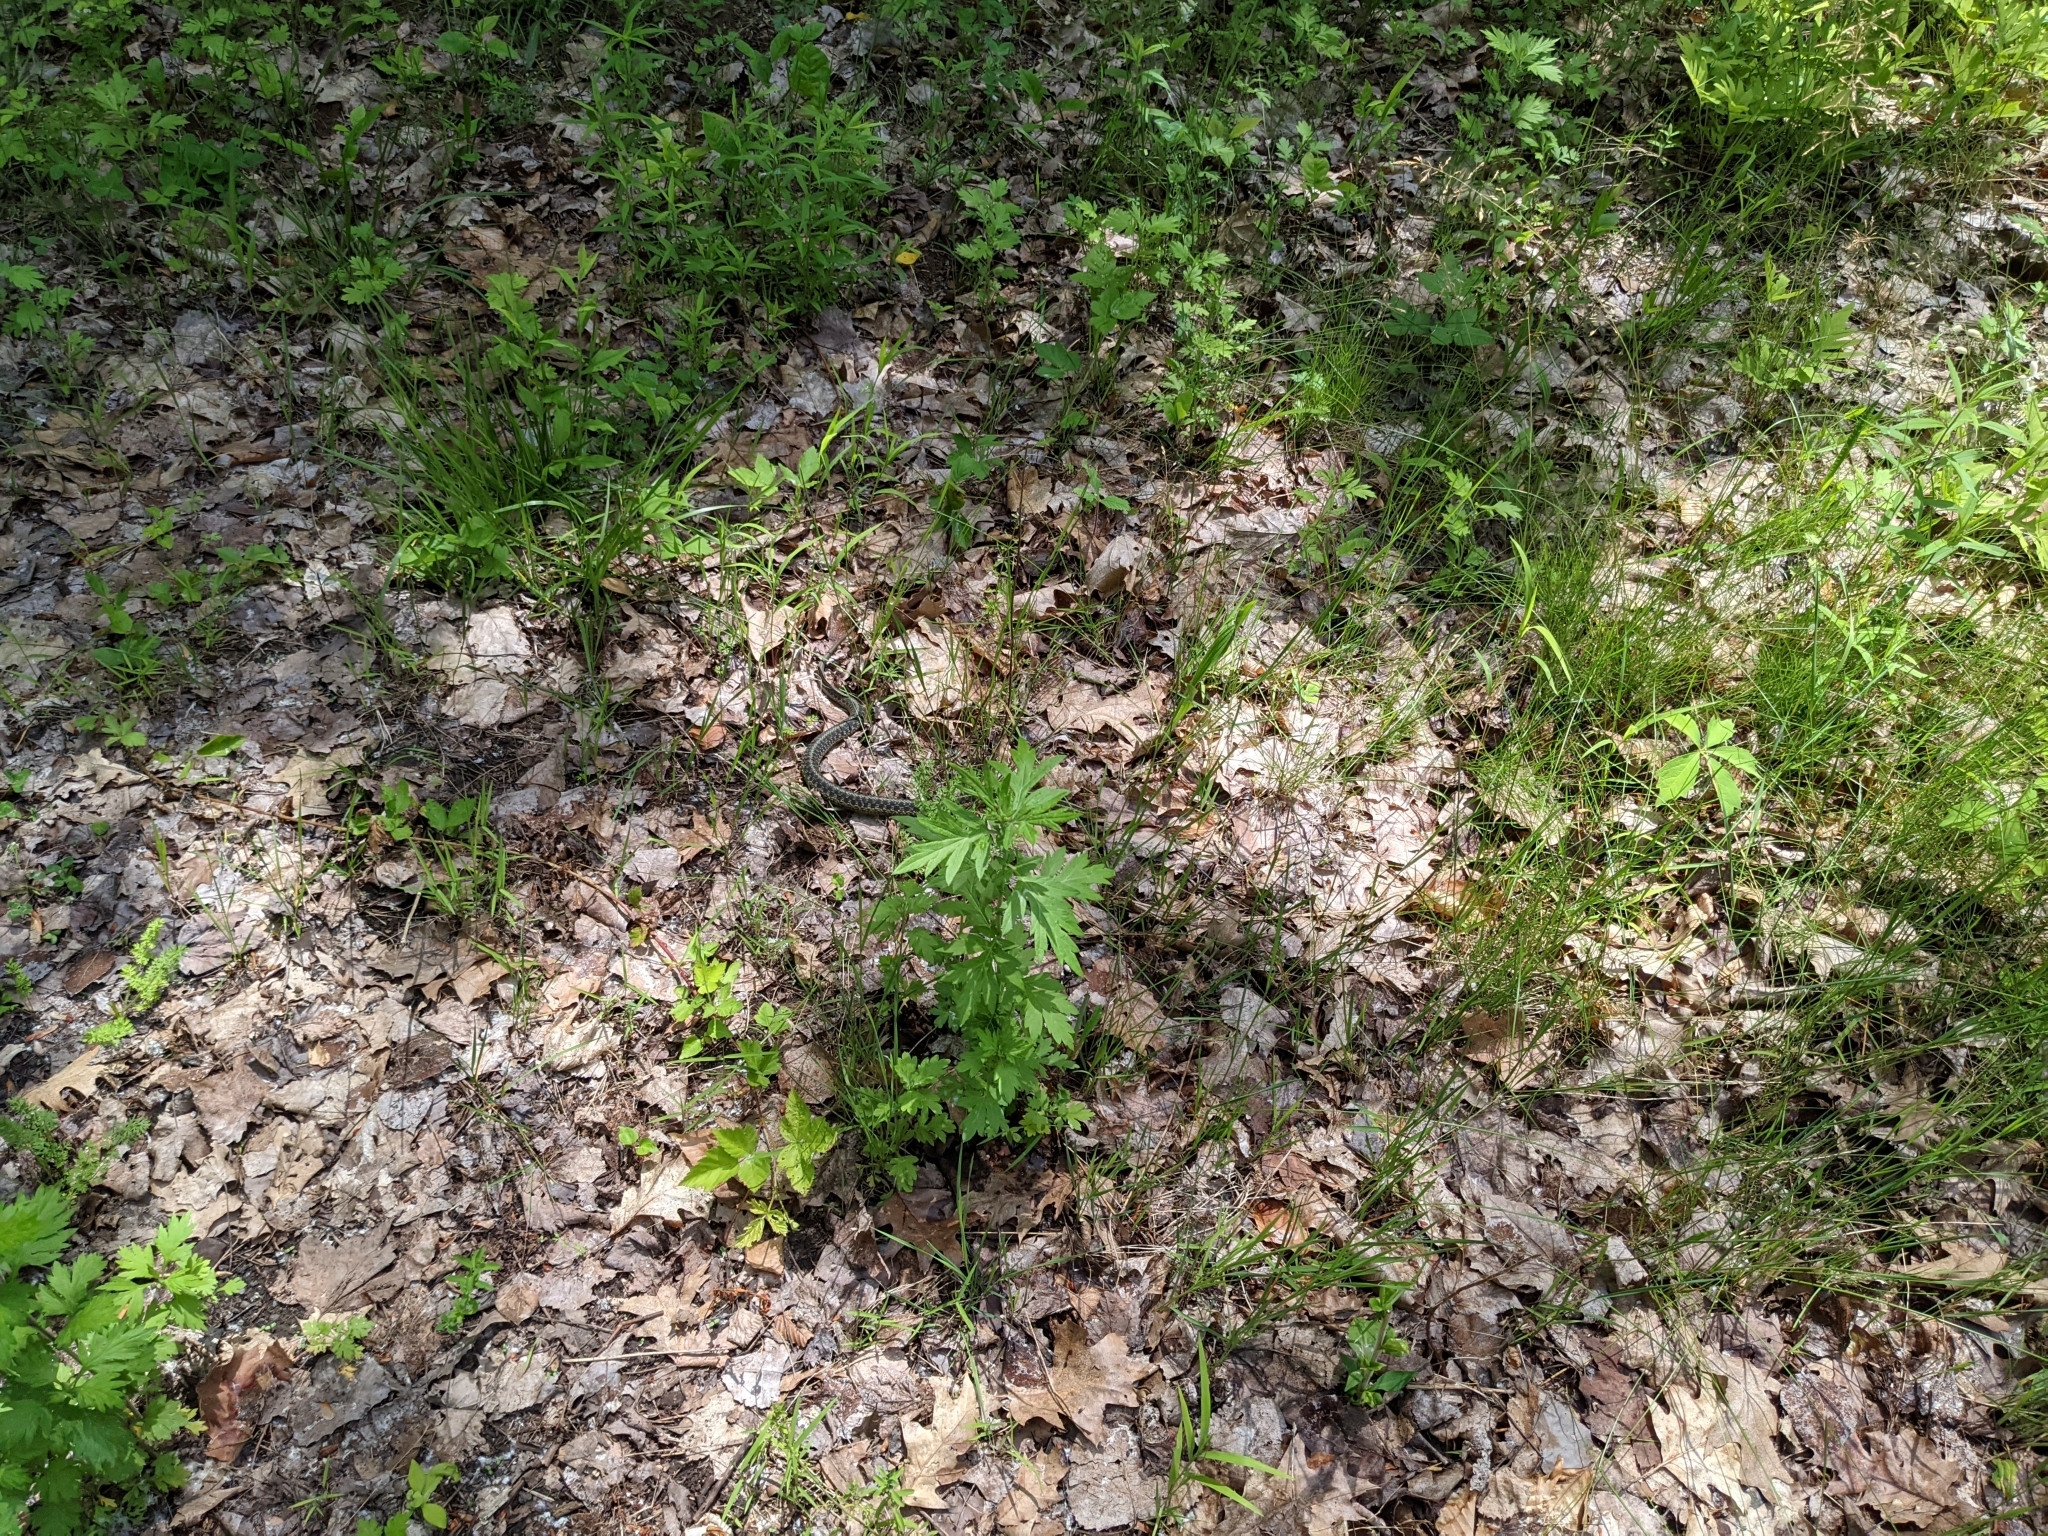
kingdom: Animalia
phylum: Chordata
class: Squamata
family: Colubridae
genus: Thamnophis
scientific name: Thamnophis sirtalis
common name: Common garter snake
